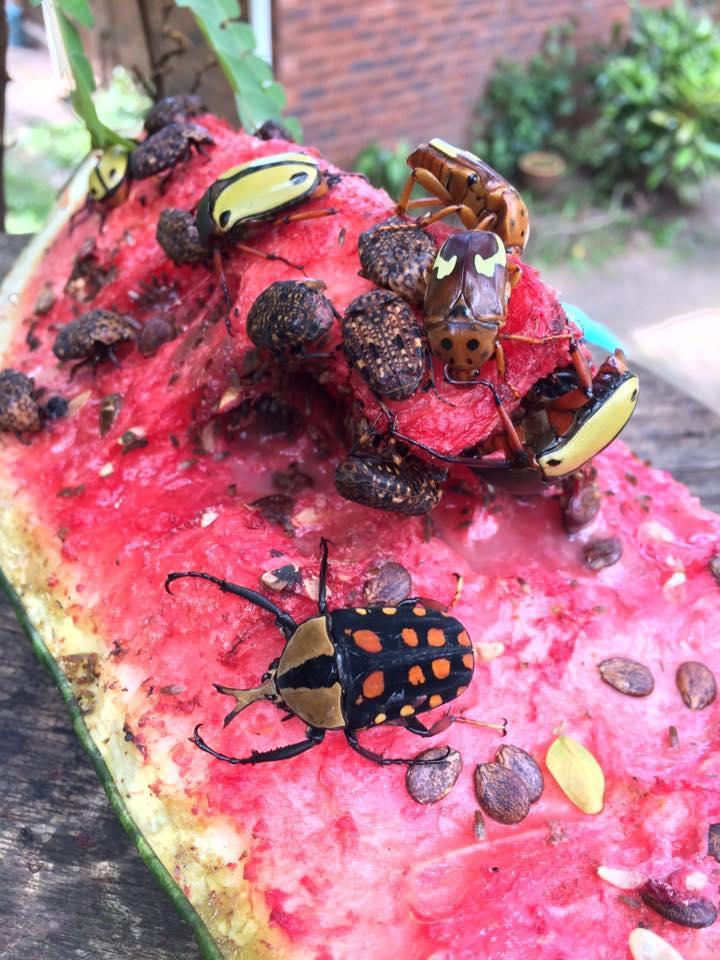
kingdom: Animalia
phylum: Arthropoda
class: Insecta
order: Coleoptera
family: Scarabaeidae
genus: Mecynorhina
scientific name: Mecynorhina passerinii
